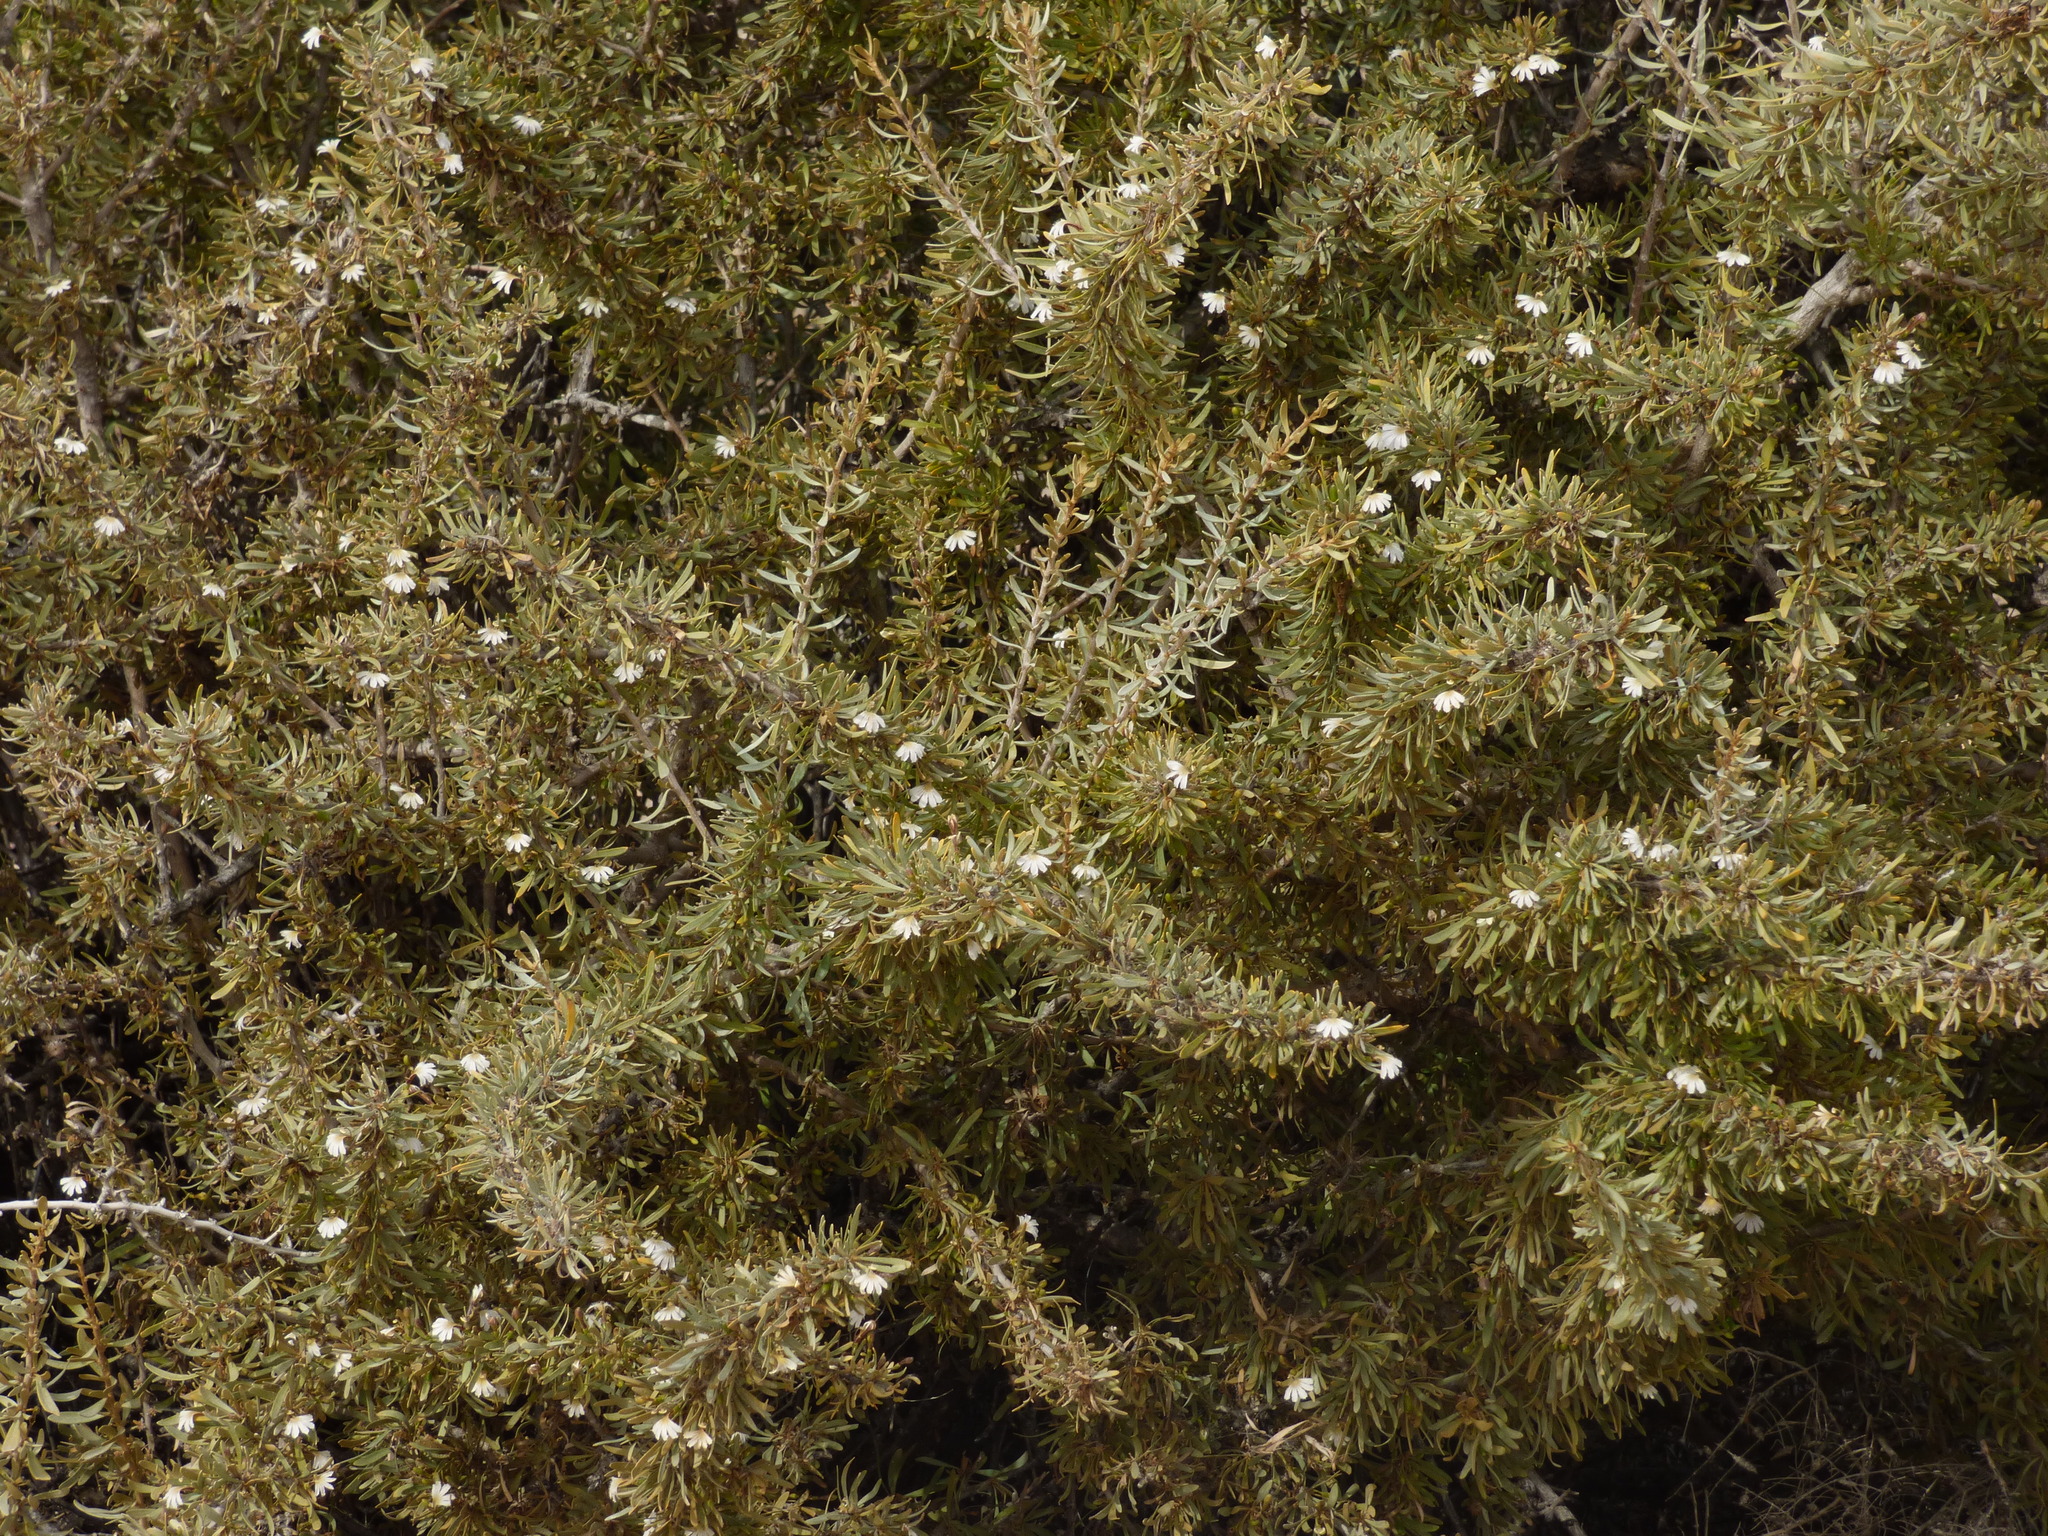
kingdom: Plantae
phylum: Tracheophyta
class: Magnoliopsida
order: Asterales
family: Goodeniaceae
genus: Scaevola
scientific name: Scaevola spinescens
